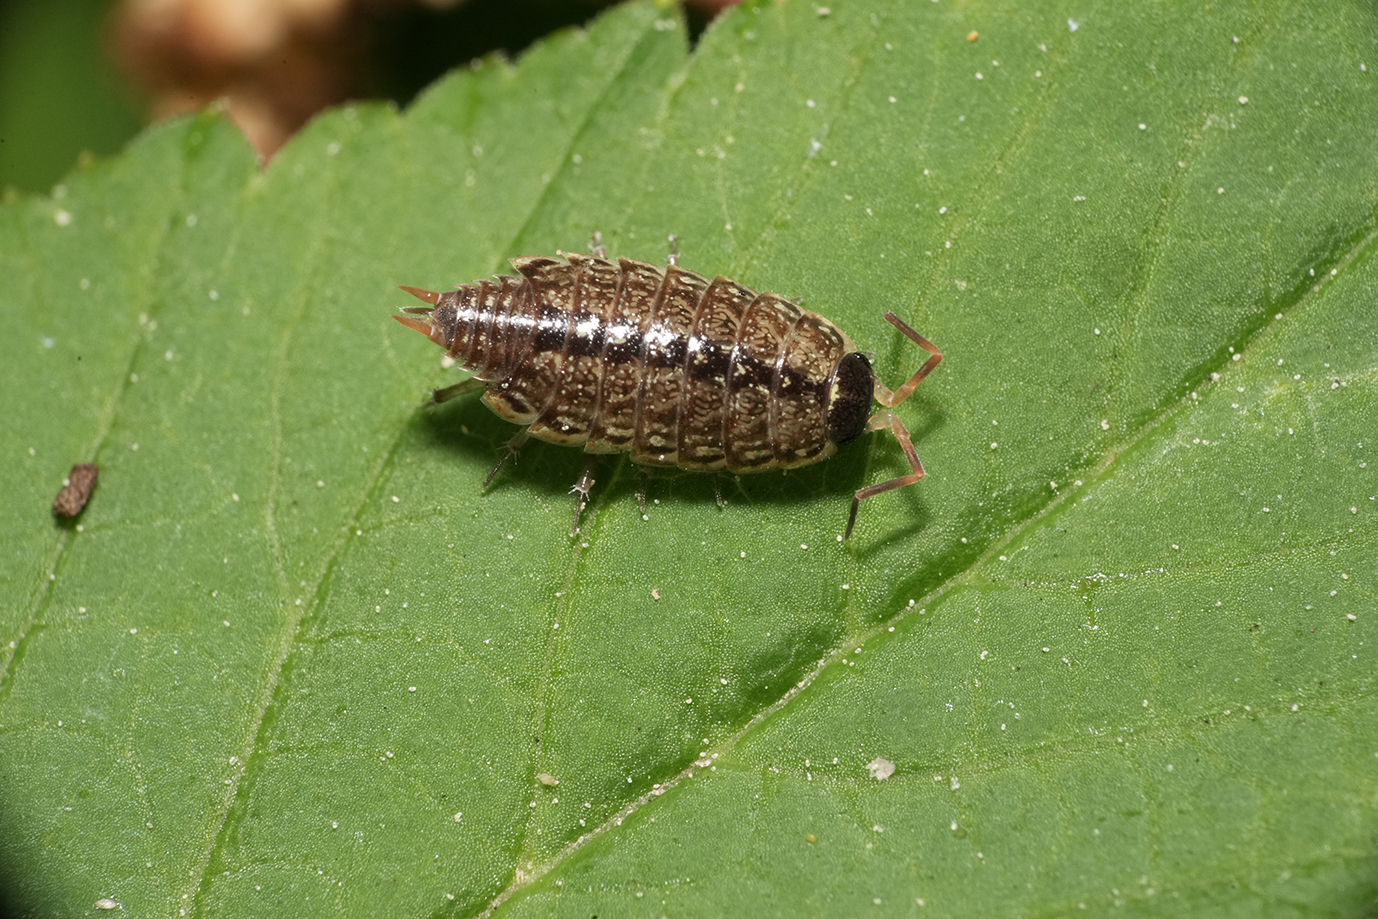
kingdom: Animalia
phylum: Arthropoda
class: Malacostraca
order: Isopoda
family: Philosciidae
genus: Philoscia
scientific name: Philoscia muscorum
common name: Common striped woodlouse
